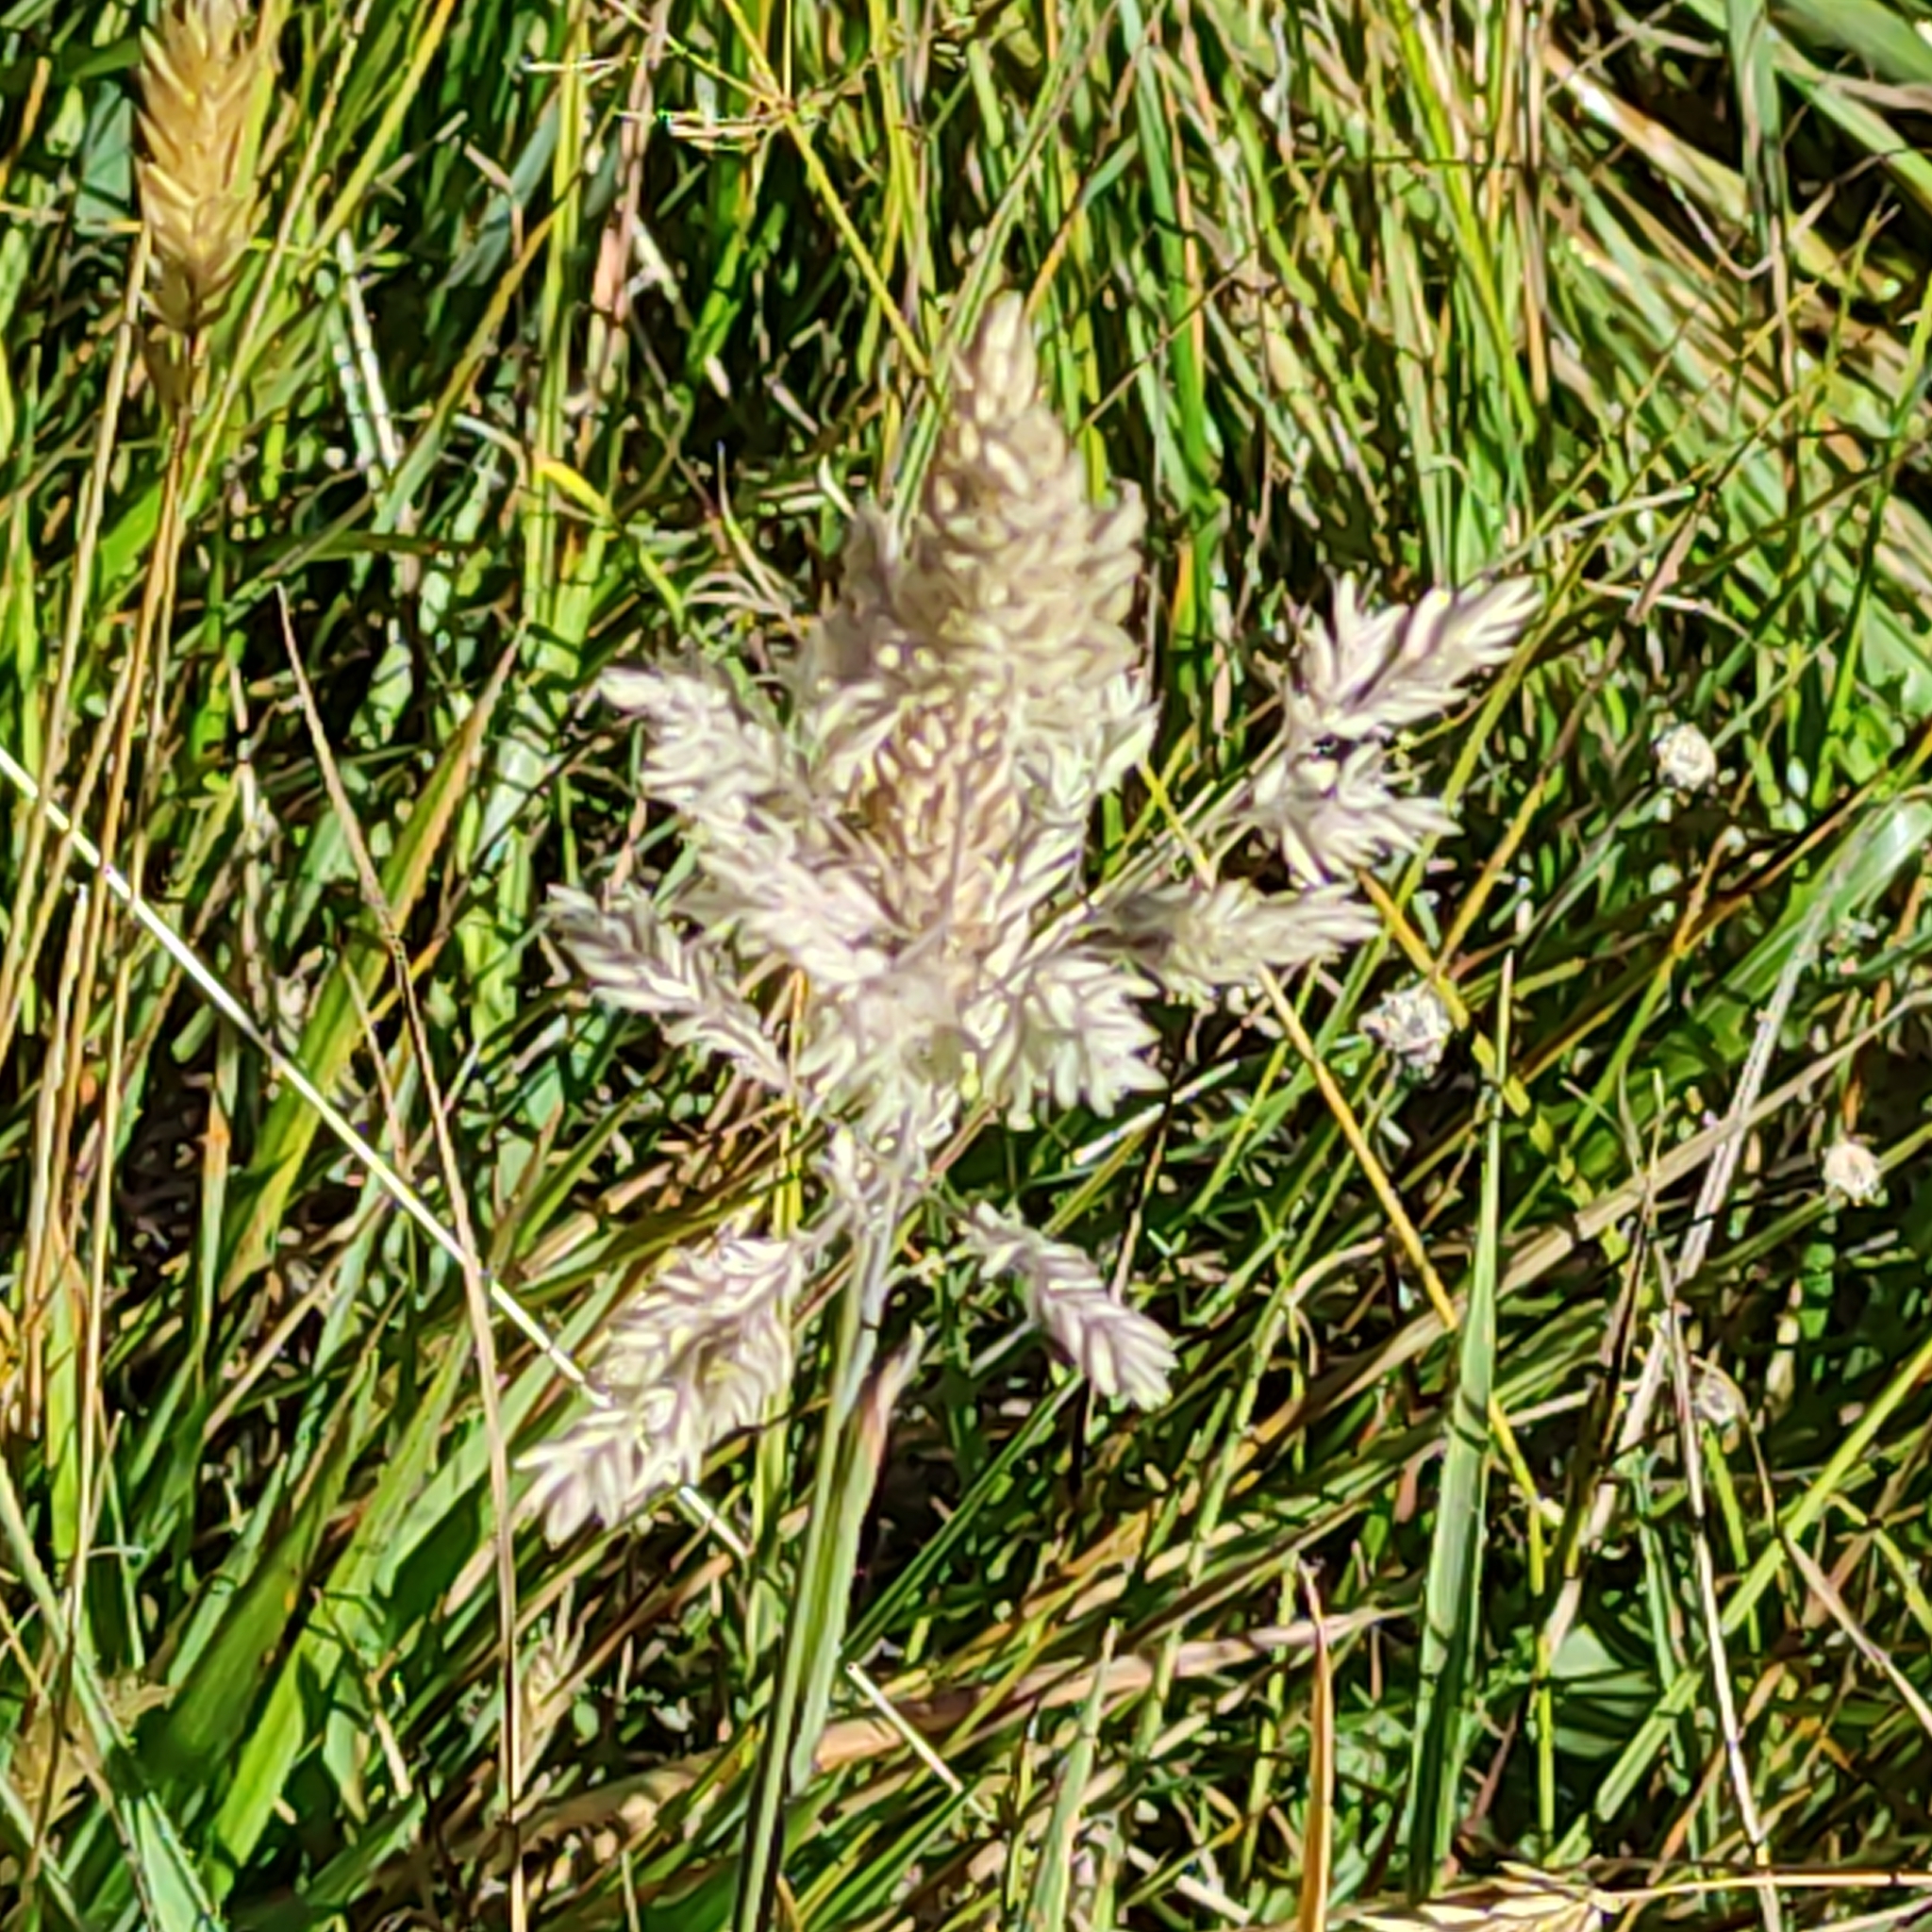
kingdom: Plantae
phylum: Tracheophyta
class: Liliopsida
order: Poales
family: Poaceae
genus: Holcus
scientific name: Holcus lanatus
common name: Yorkshire-fog
